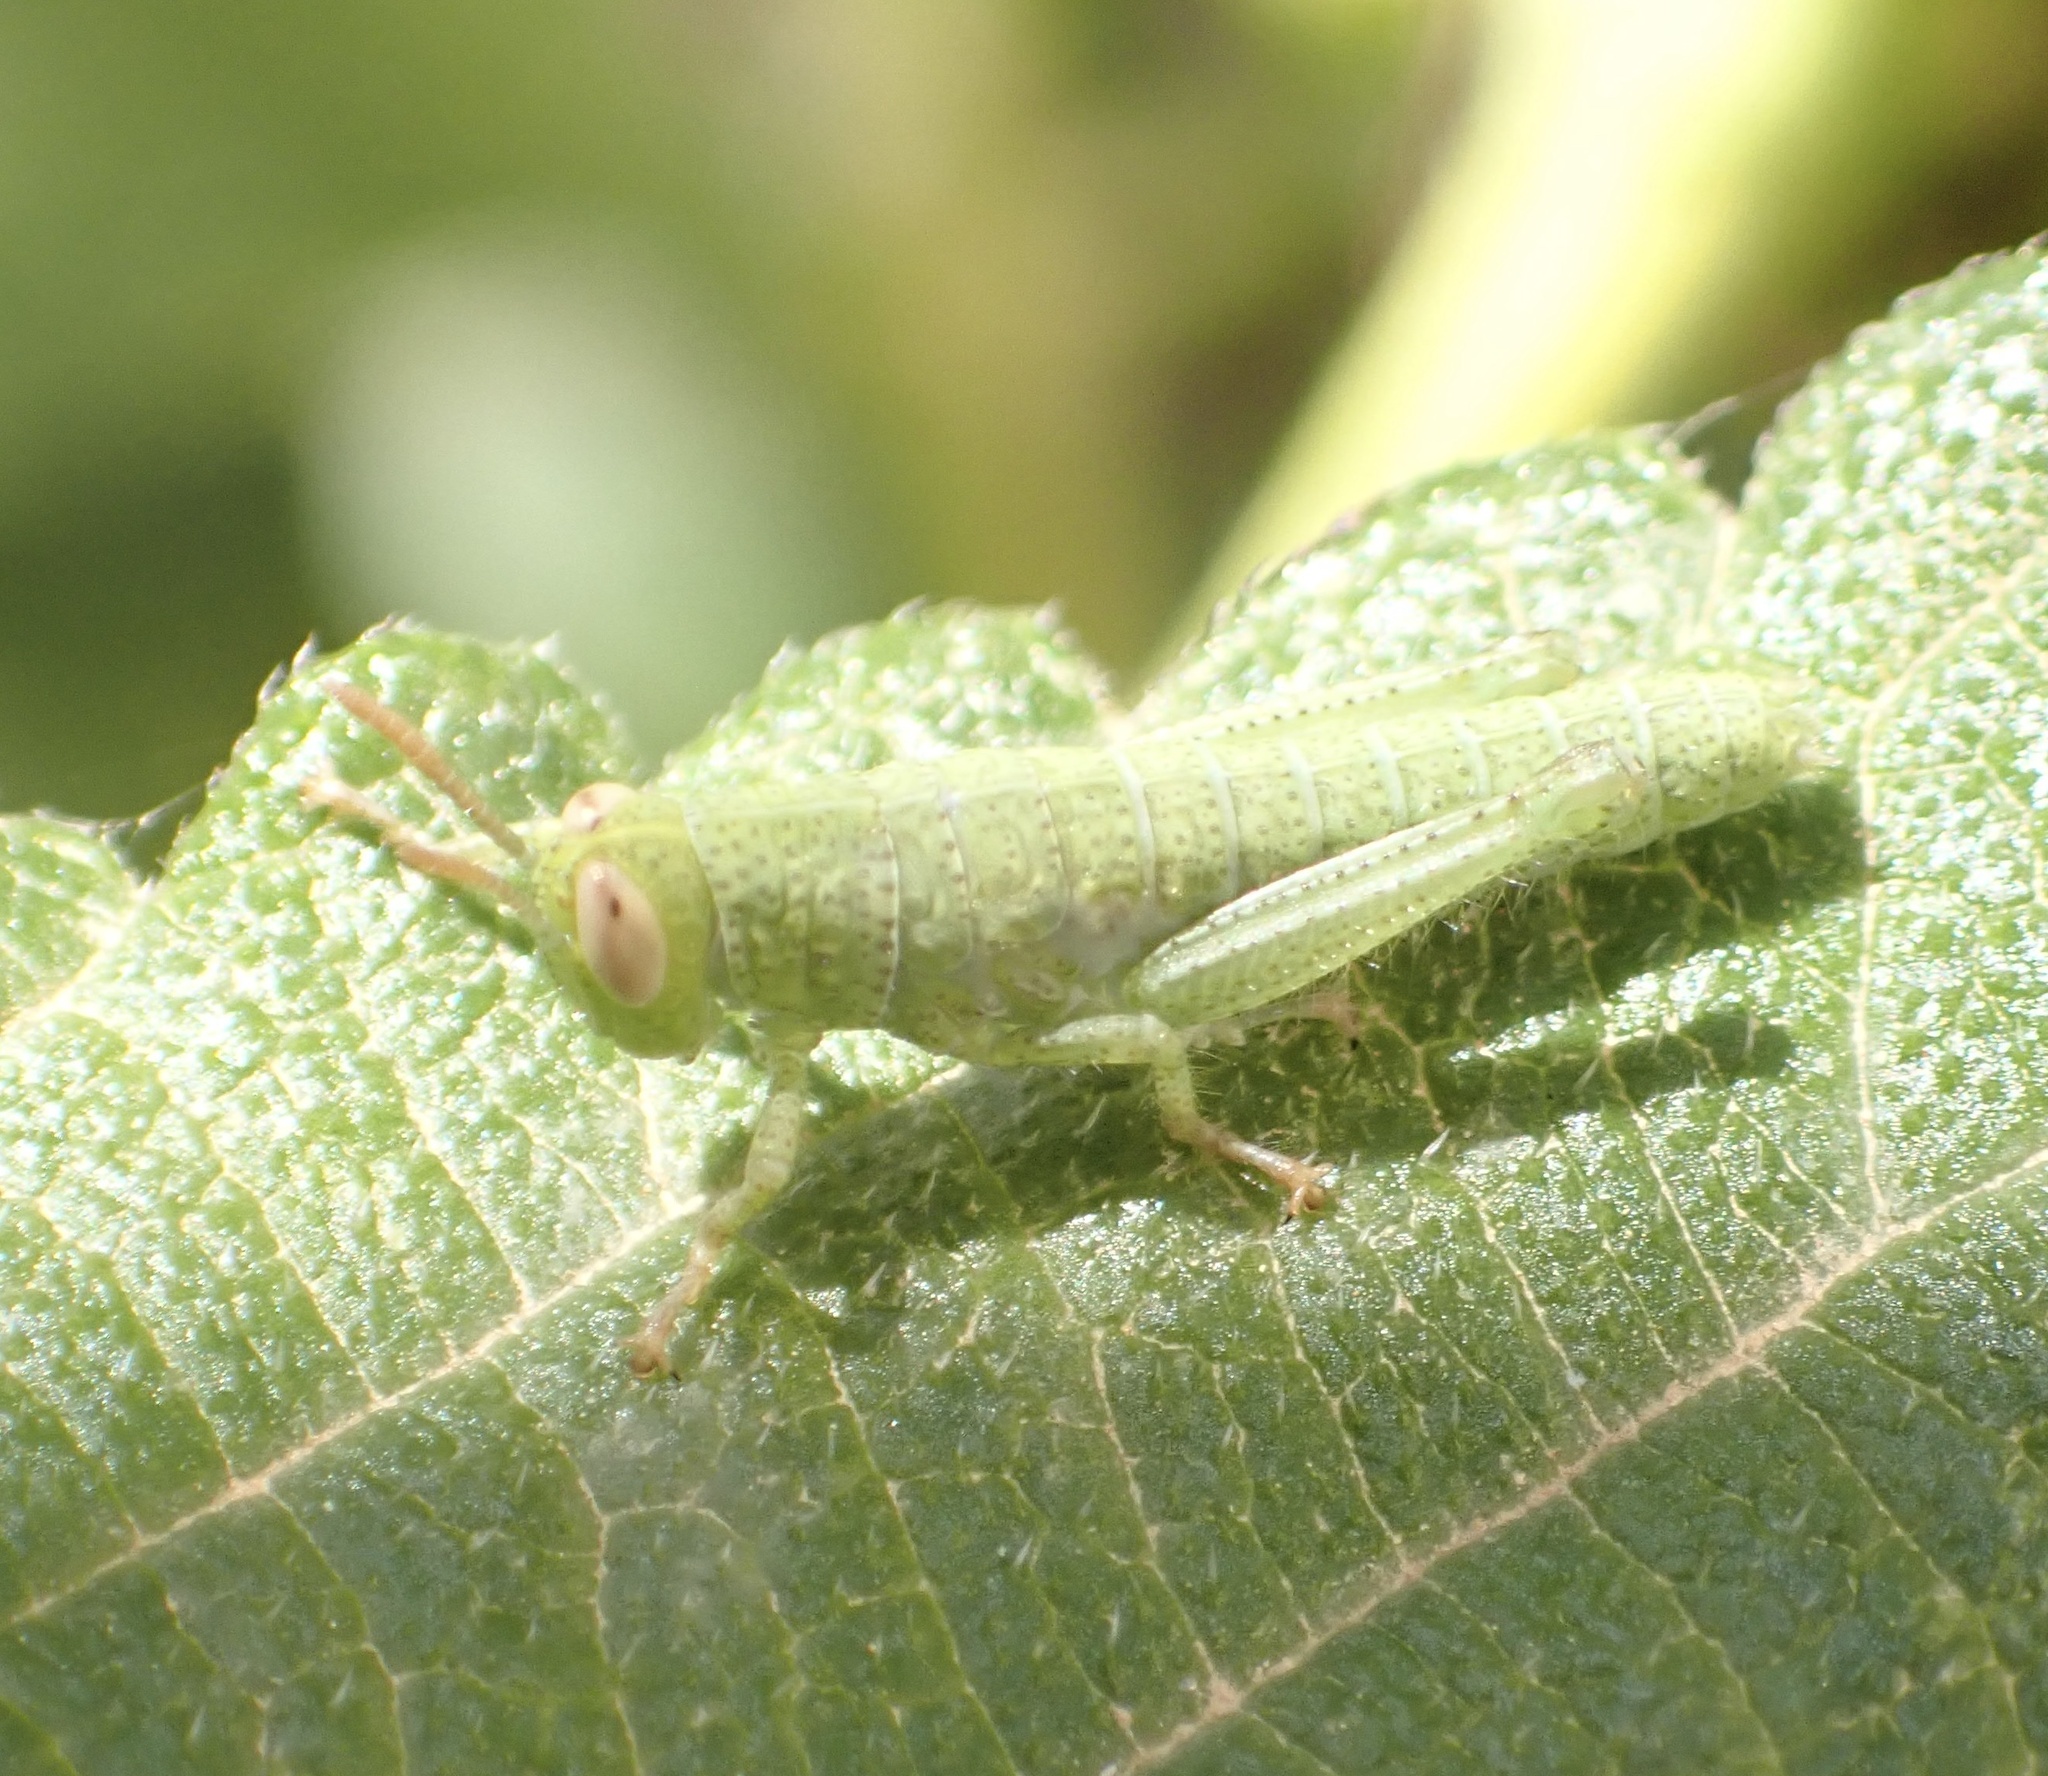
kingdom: Animalia
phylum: Arthropoda
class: Insecta
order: Orthoptera
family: Acrididae
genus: Anacridium
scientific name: Anacridium aegyptium
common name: Egyptian grasshopper
